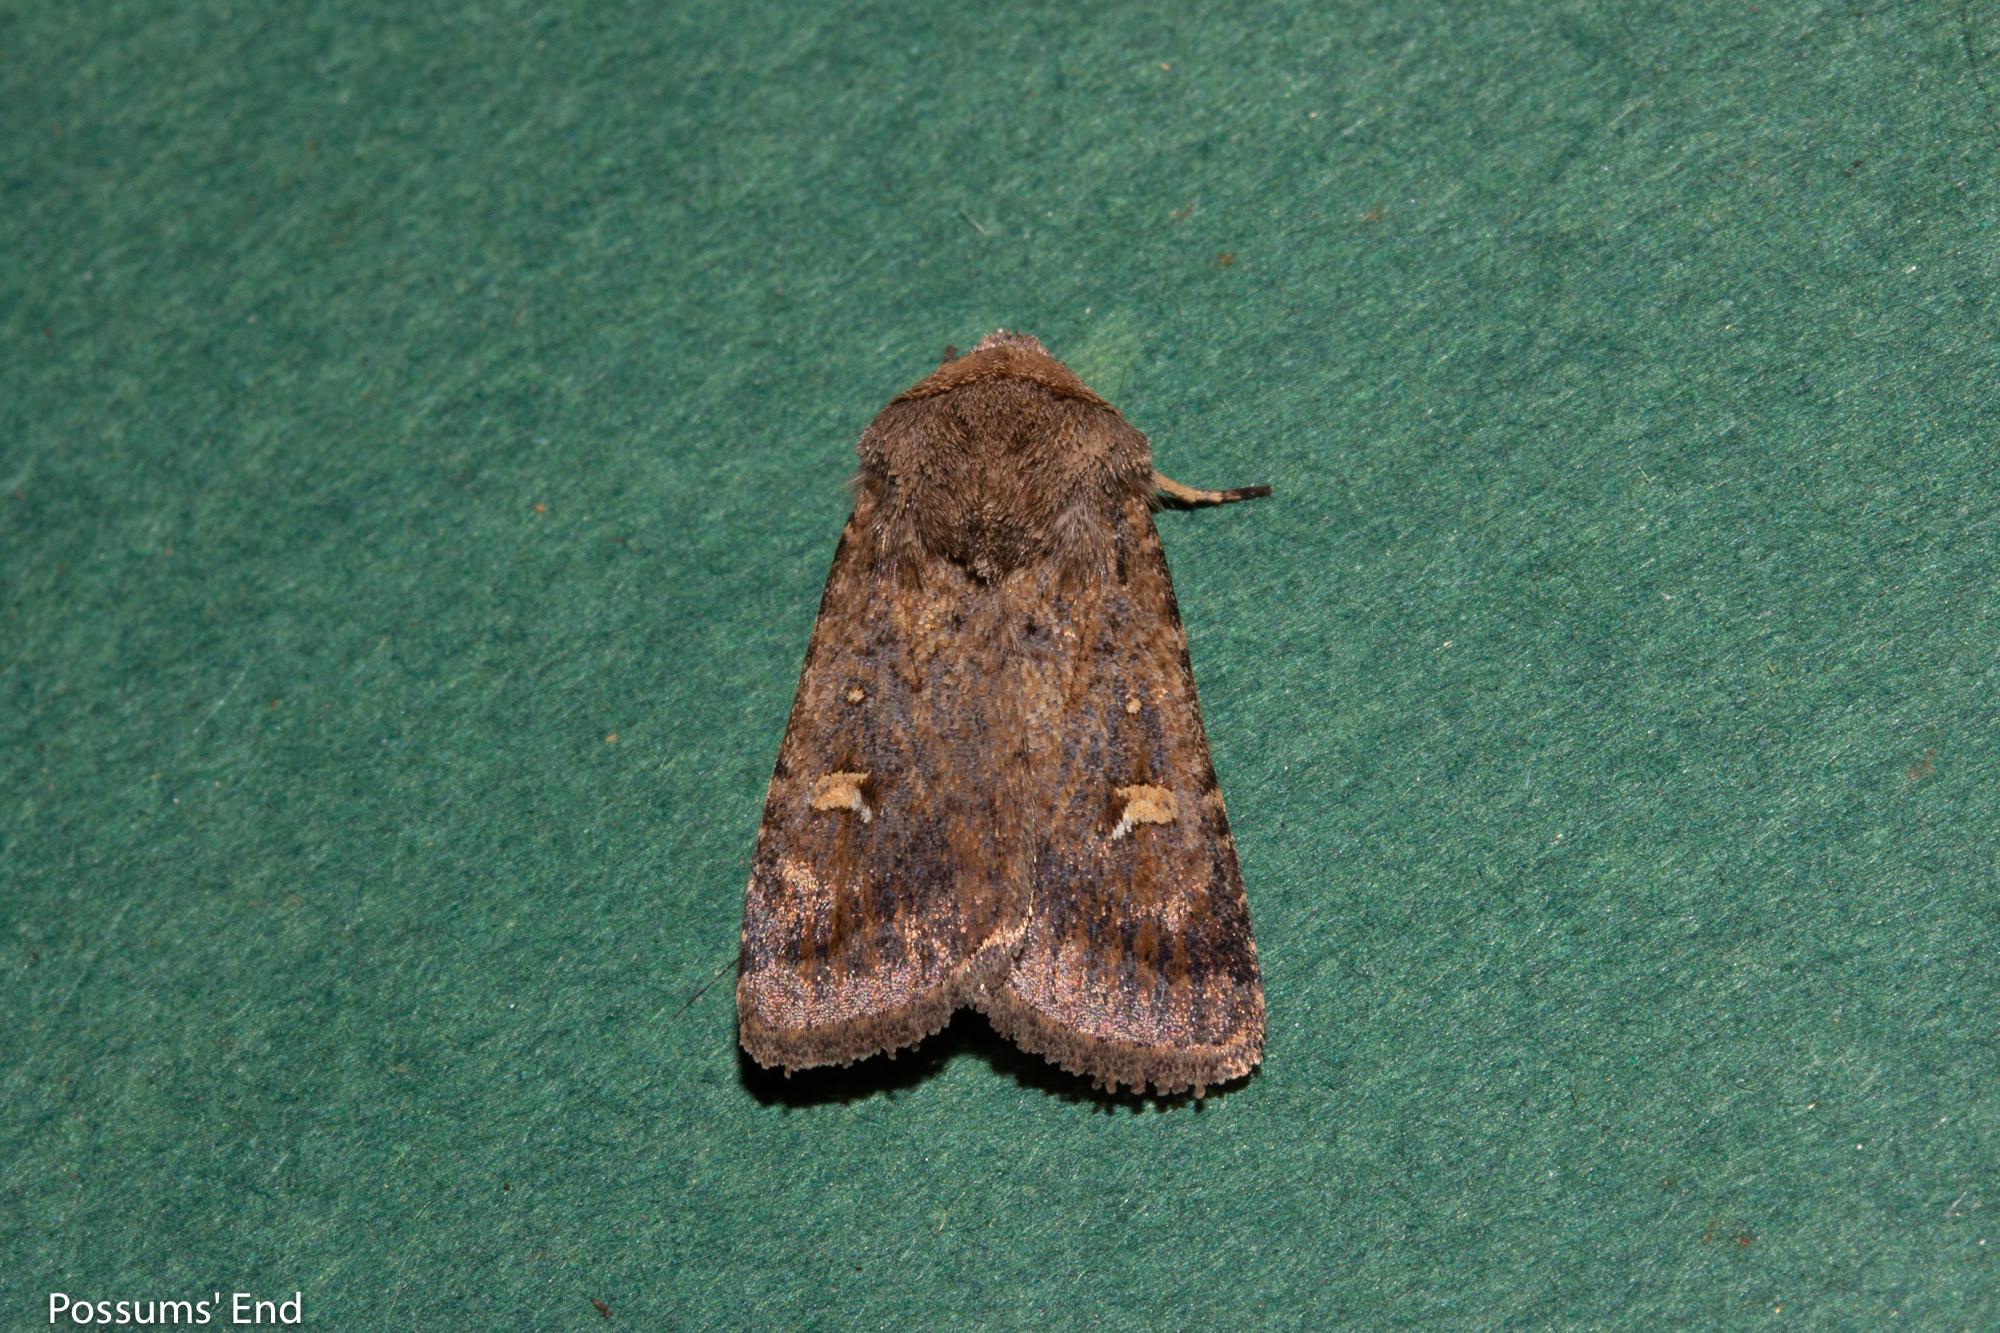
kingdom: Animalia
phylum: Arthropoda
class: Insecta
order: Lepidoptera
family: Noctuidae
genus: Proteuxoa
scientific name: Proteuxoa tetronycha
